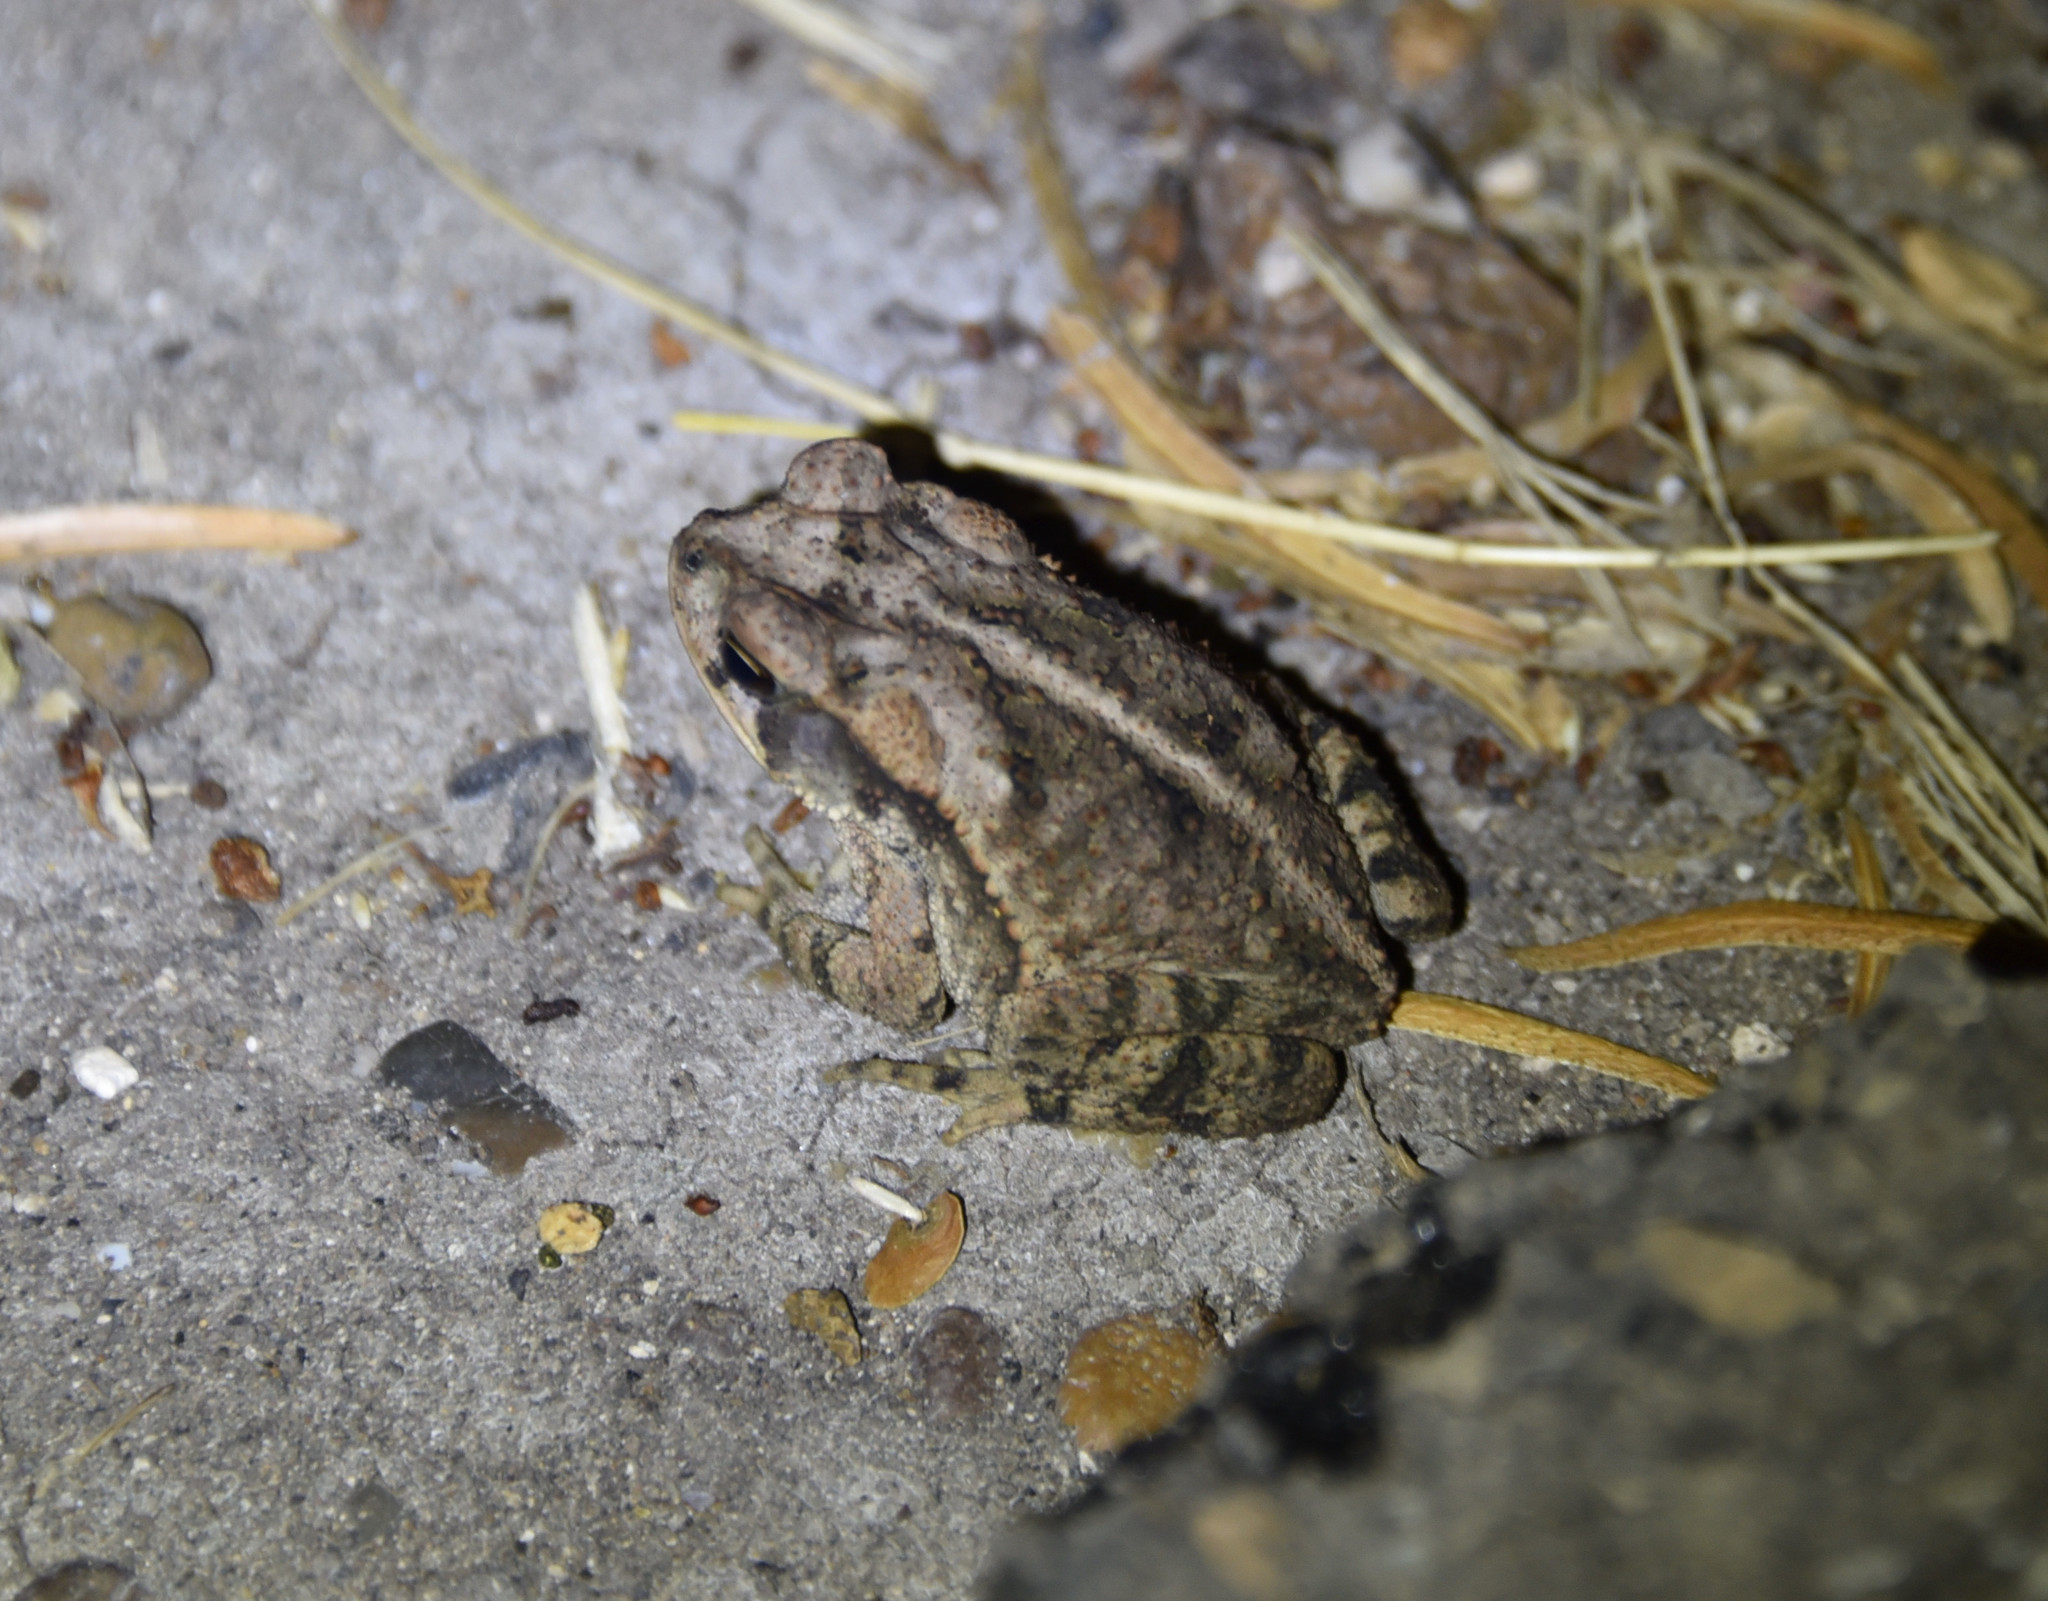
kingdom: Animalia
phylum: Chordata
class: Amphibia
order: Anura
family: Bufonidae
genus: Incilius
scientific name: Incilius nebulifer
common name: Gulf coast toad
